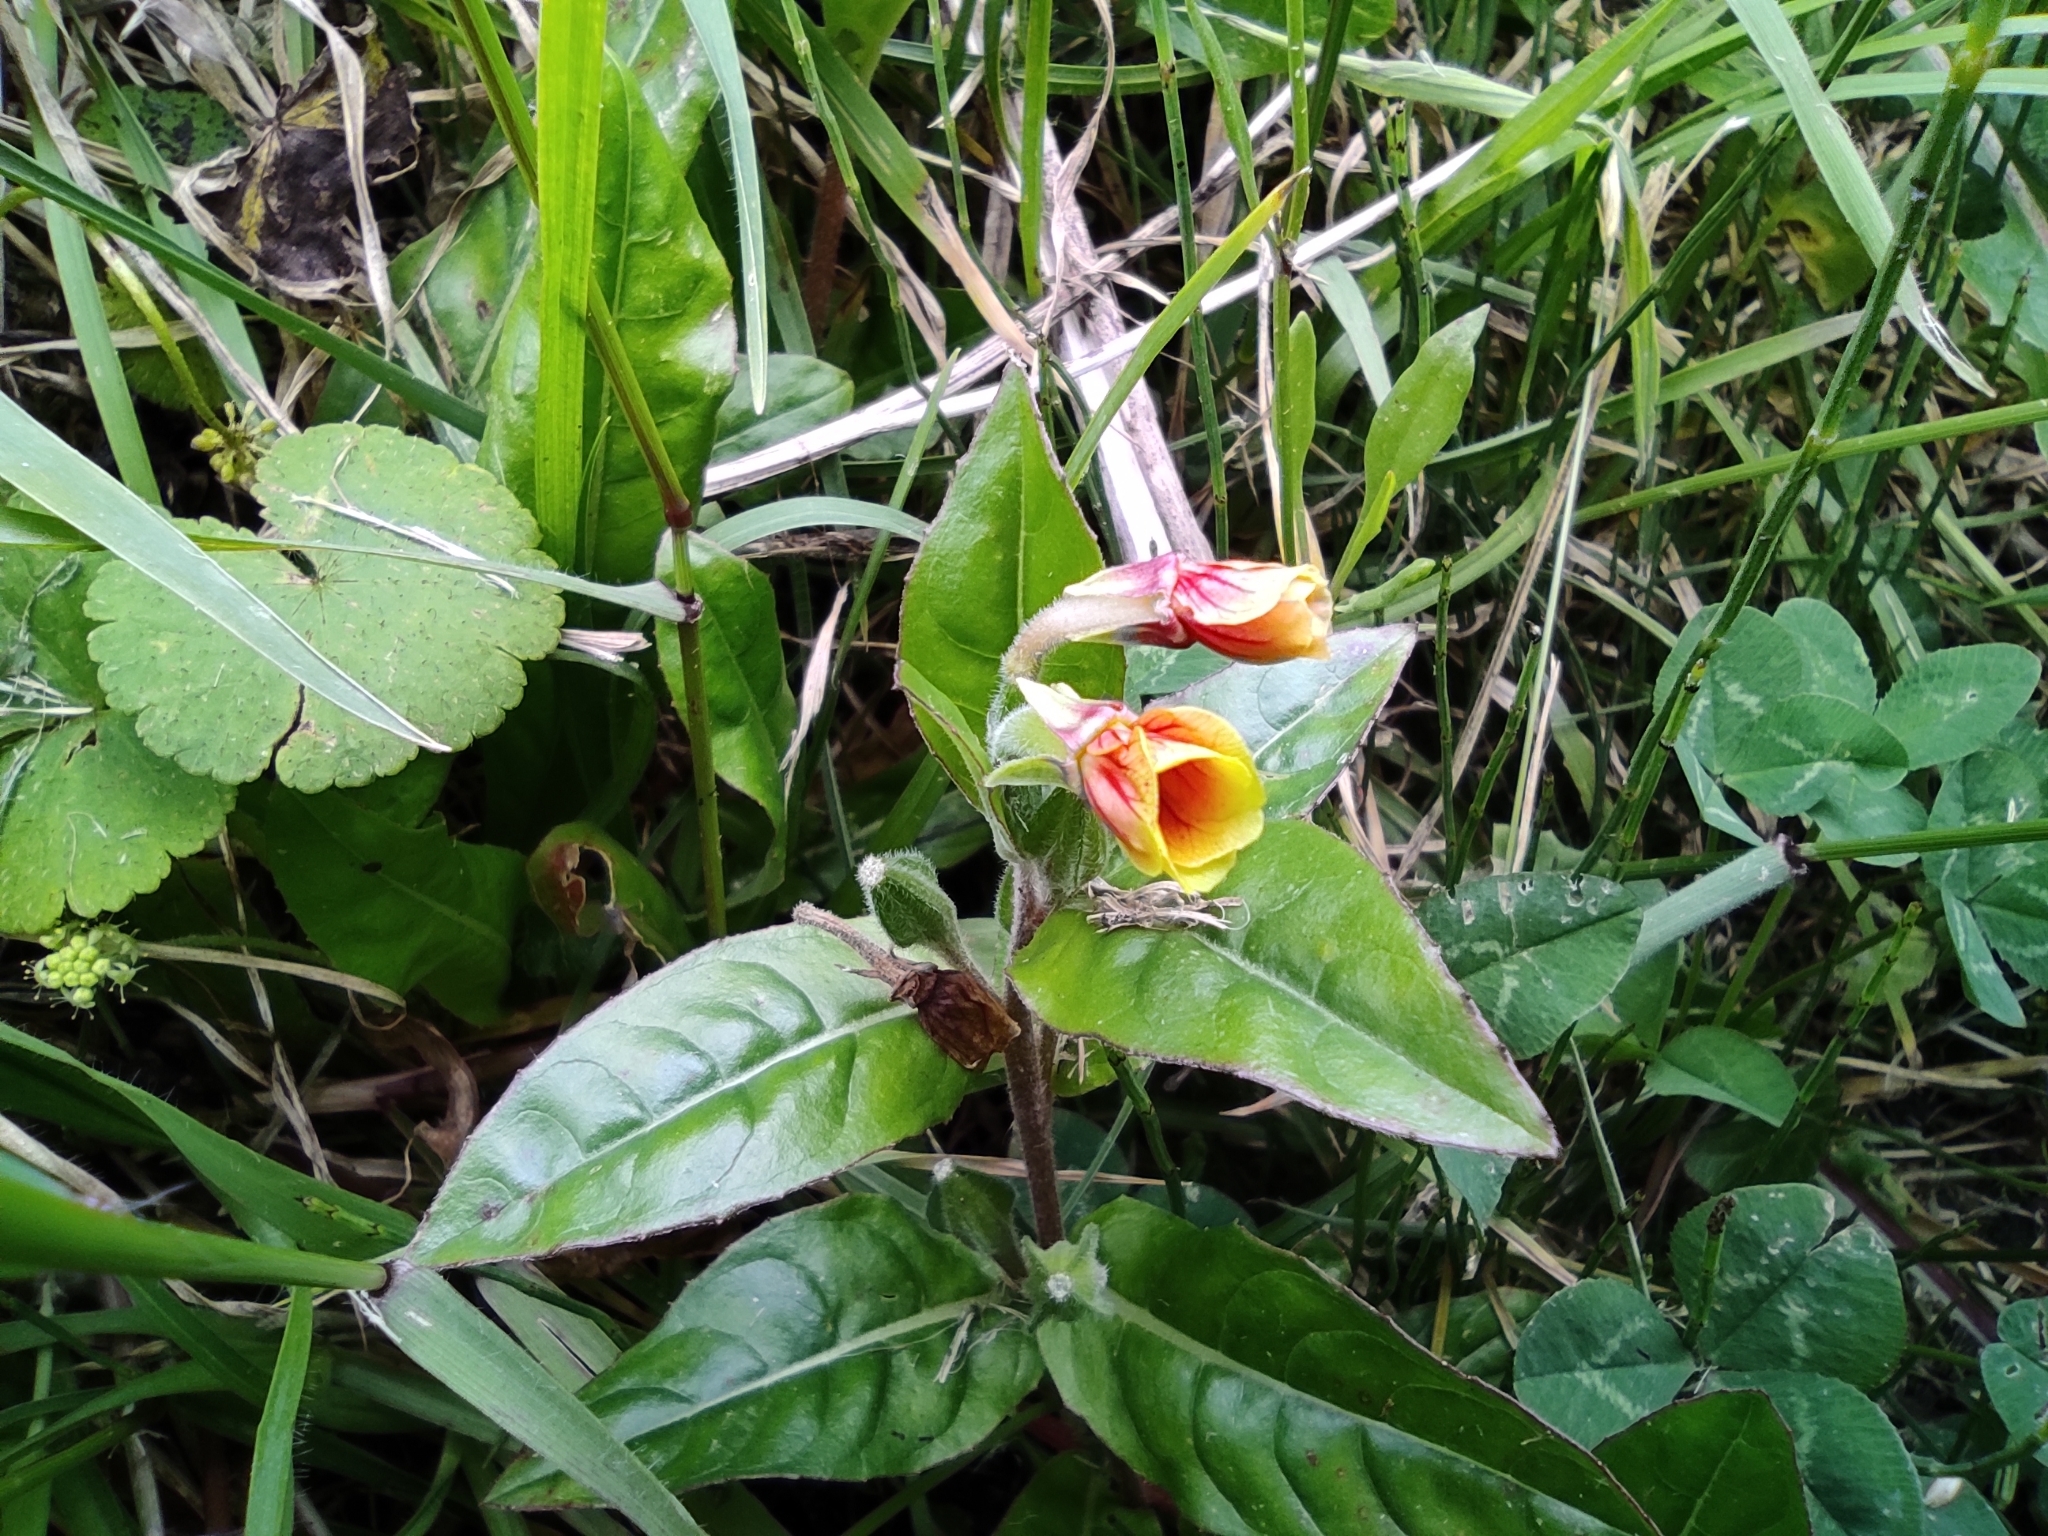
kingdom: Plantae
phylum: Tracheophyta
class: Magnoliopsida
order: Myrtales
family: Onagraceae
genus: Oenothera
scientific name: Oenothera epilobiifolia
